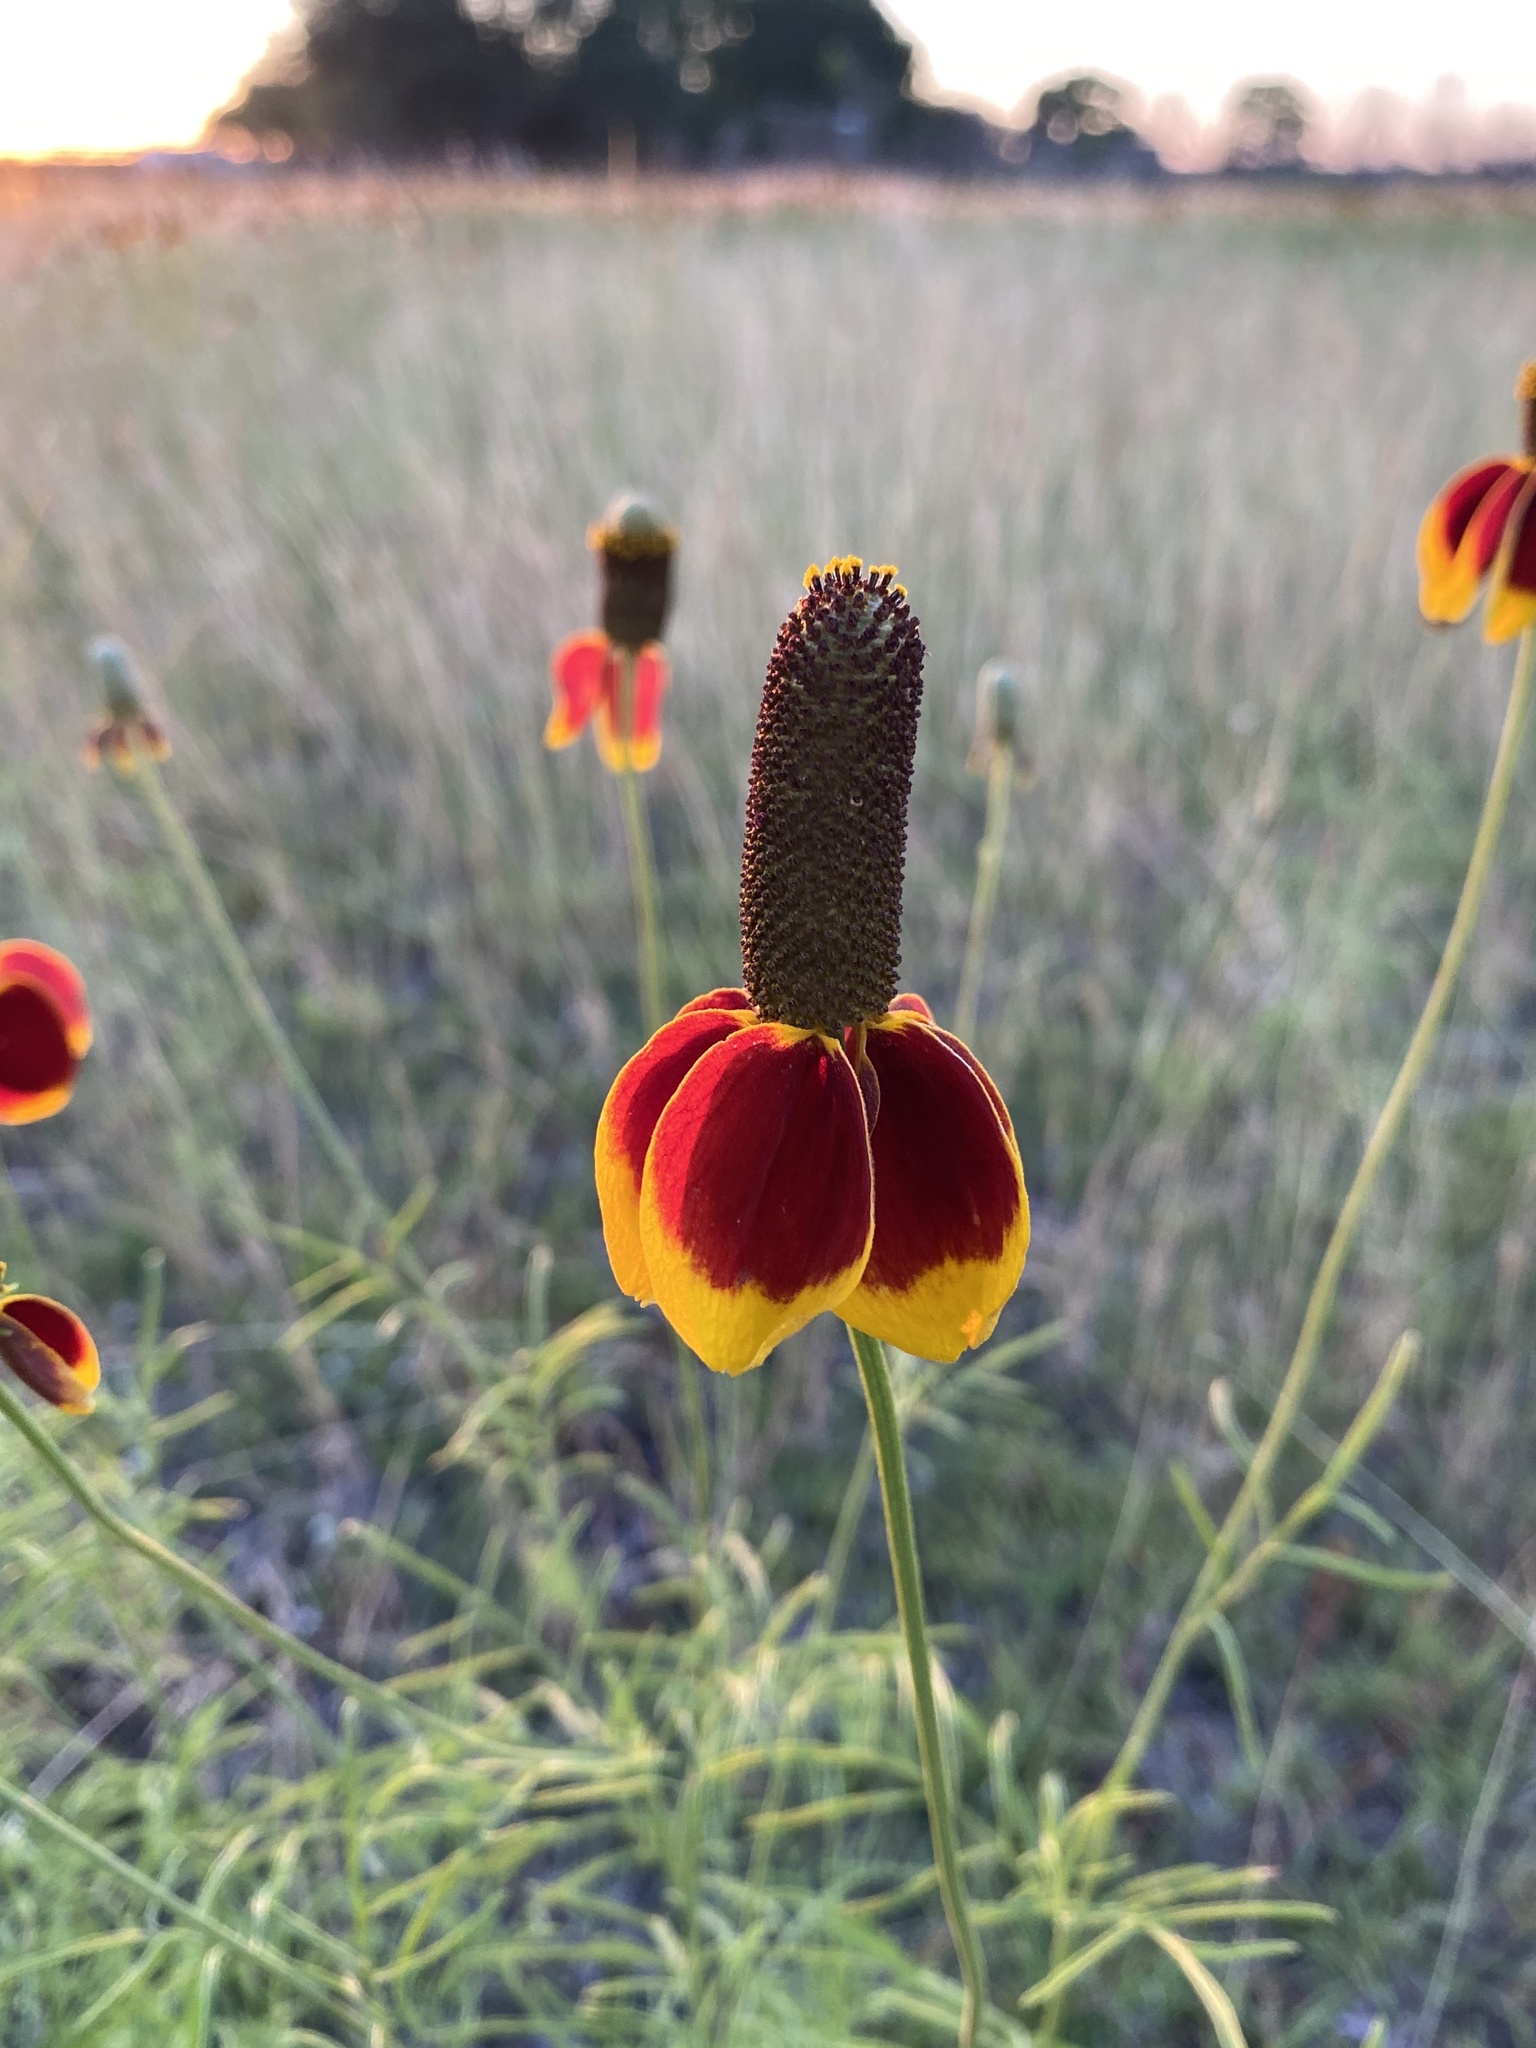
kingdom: Plantae
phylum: Tracheophyta
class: Magnoliopsida
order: Asterales
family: Asteraceae
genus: Ratibida
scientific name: Ratibida columnifera
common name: Prairie coneflower
